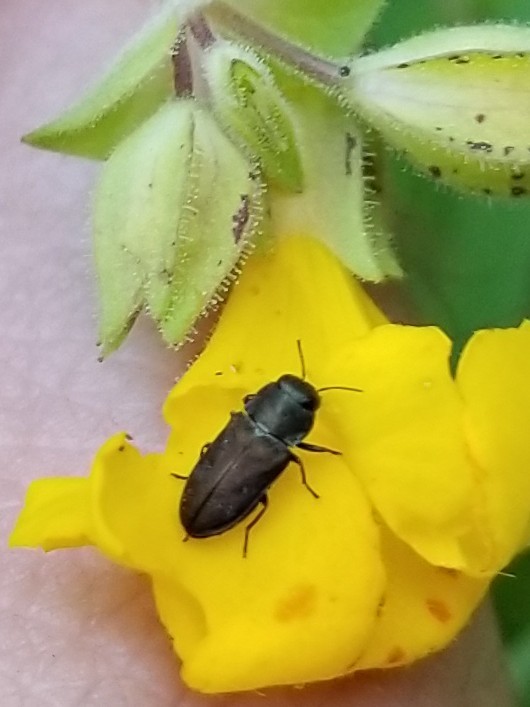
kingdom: Animalia
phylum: Arthropoda
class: Insecta
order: Coleoptera
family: Buprestidae
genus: Anthaxia
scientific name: Anthaxia
